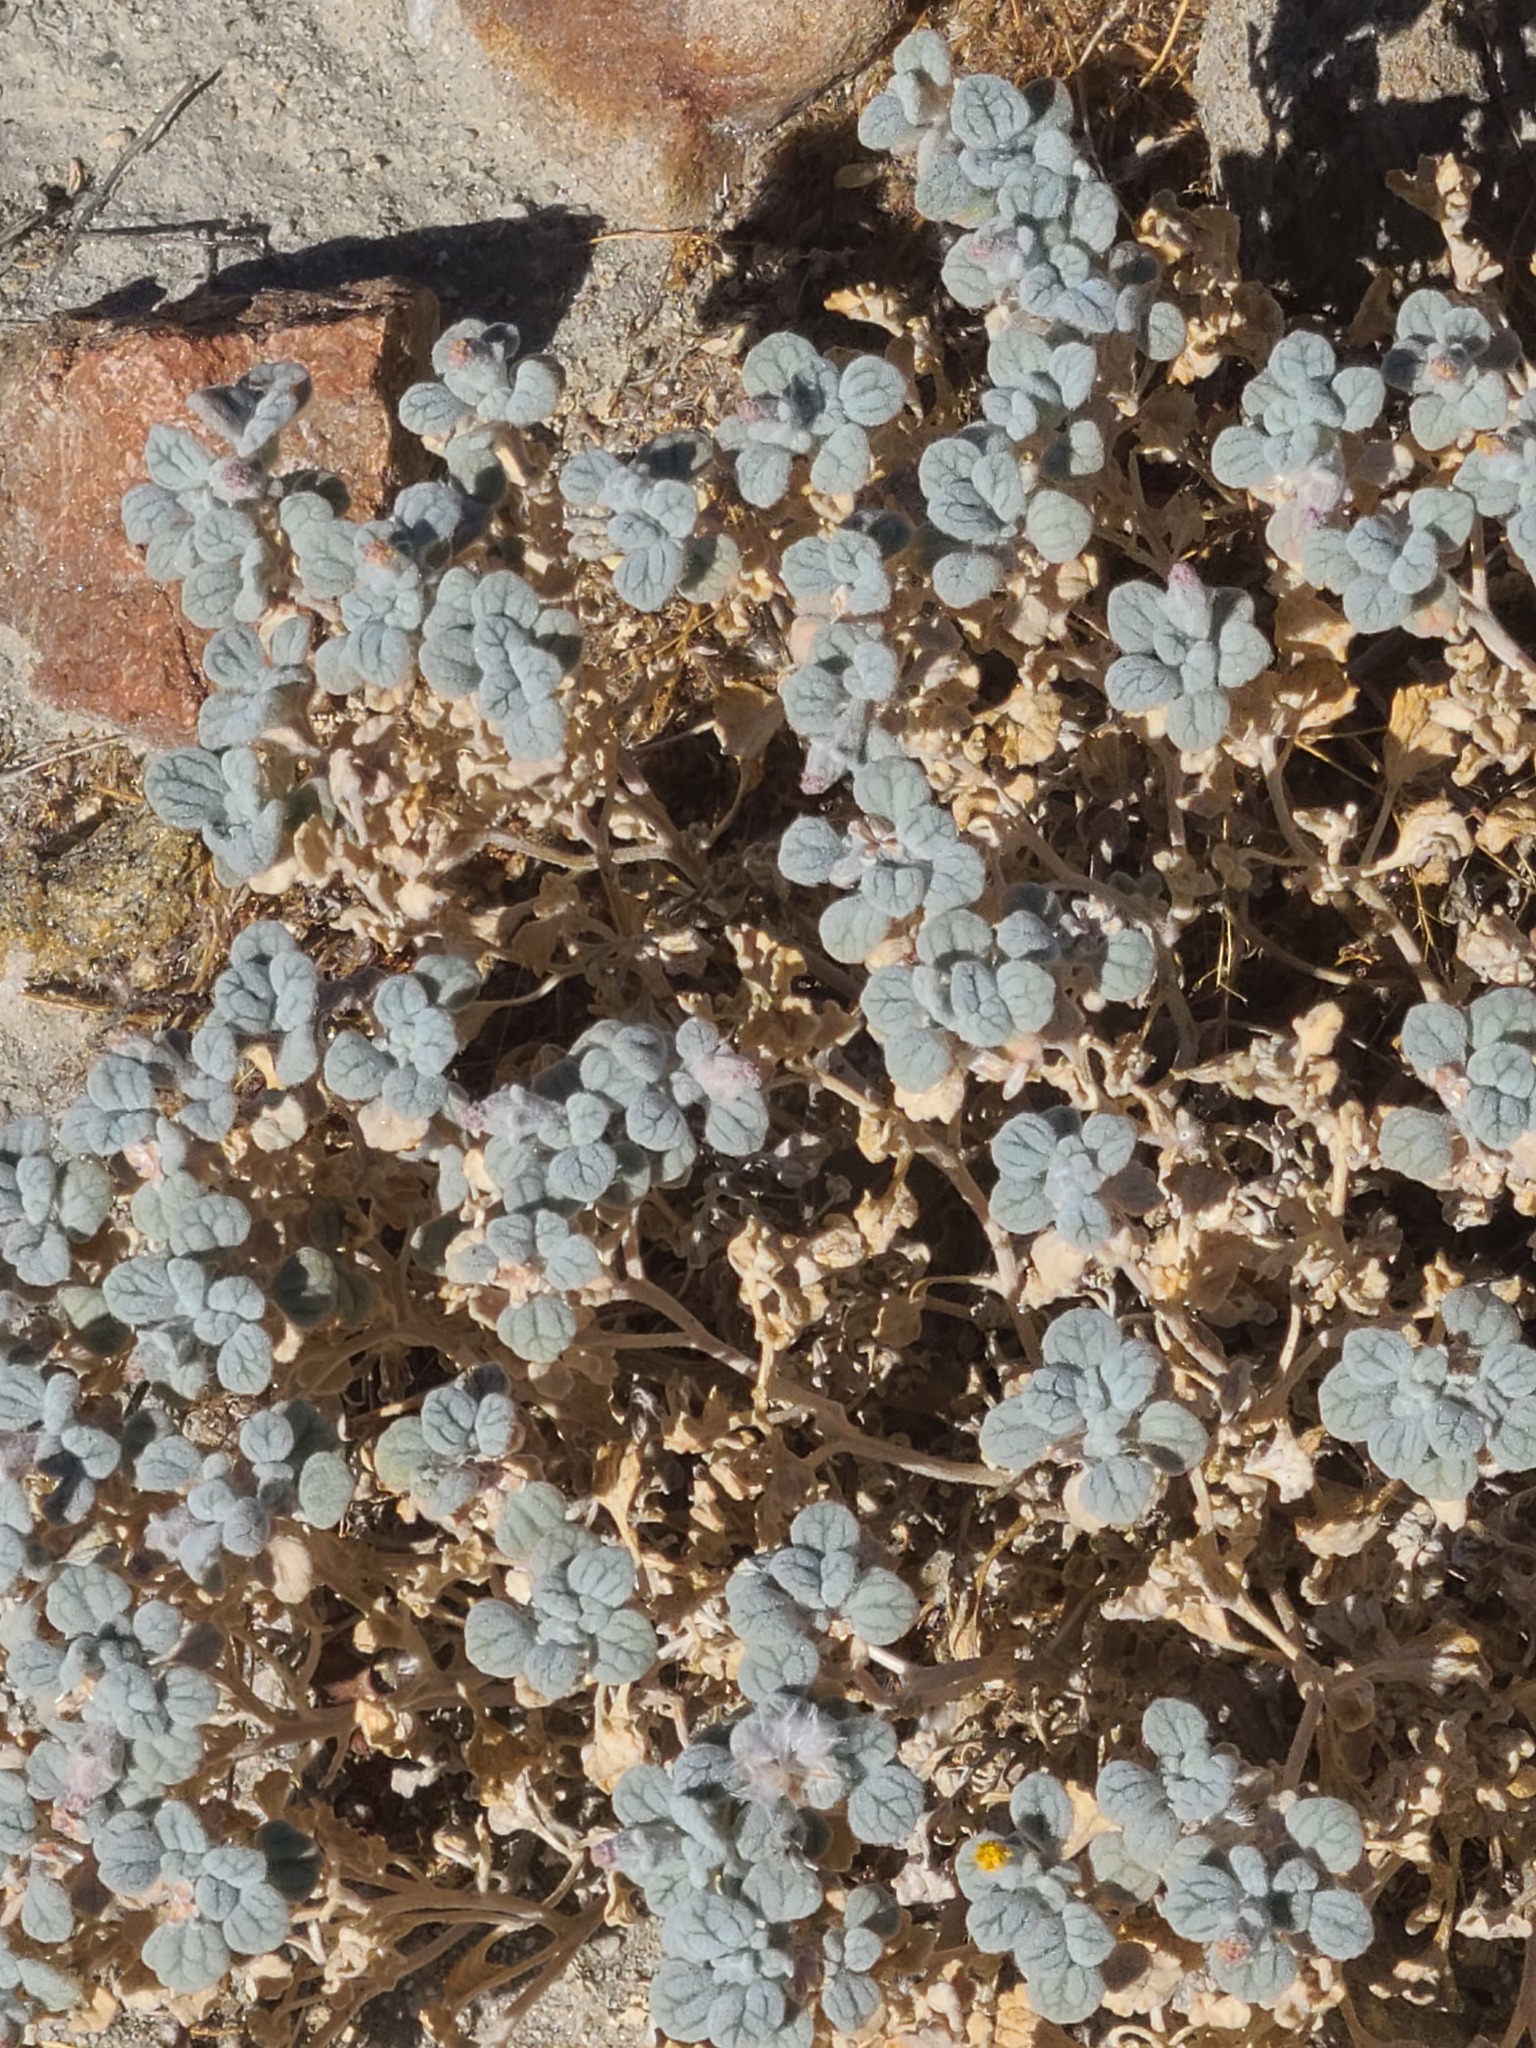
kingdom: Plantae
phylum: Tracheophyta
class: Magnoliopsida
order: Asterales
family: Asteraceae
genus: Psathyrotes
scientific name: Psathyrotes ramosissima
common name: Turtleback
